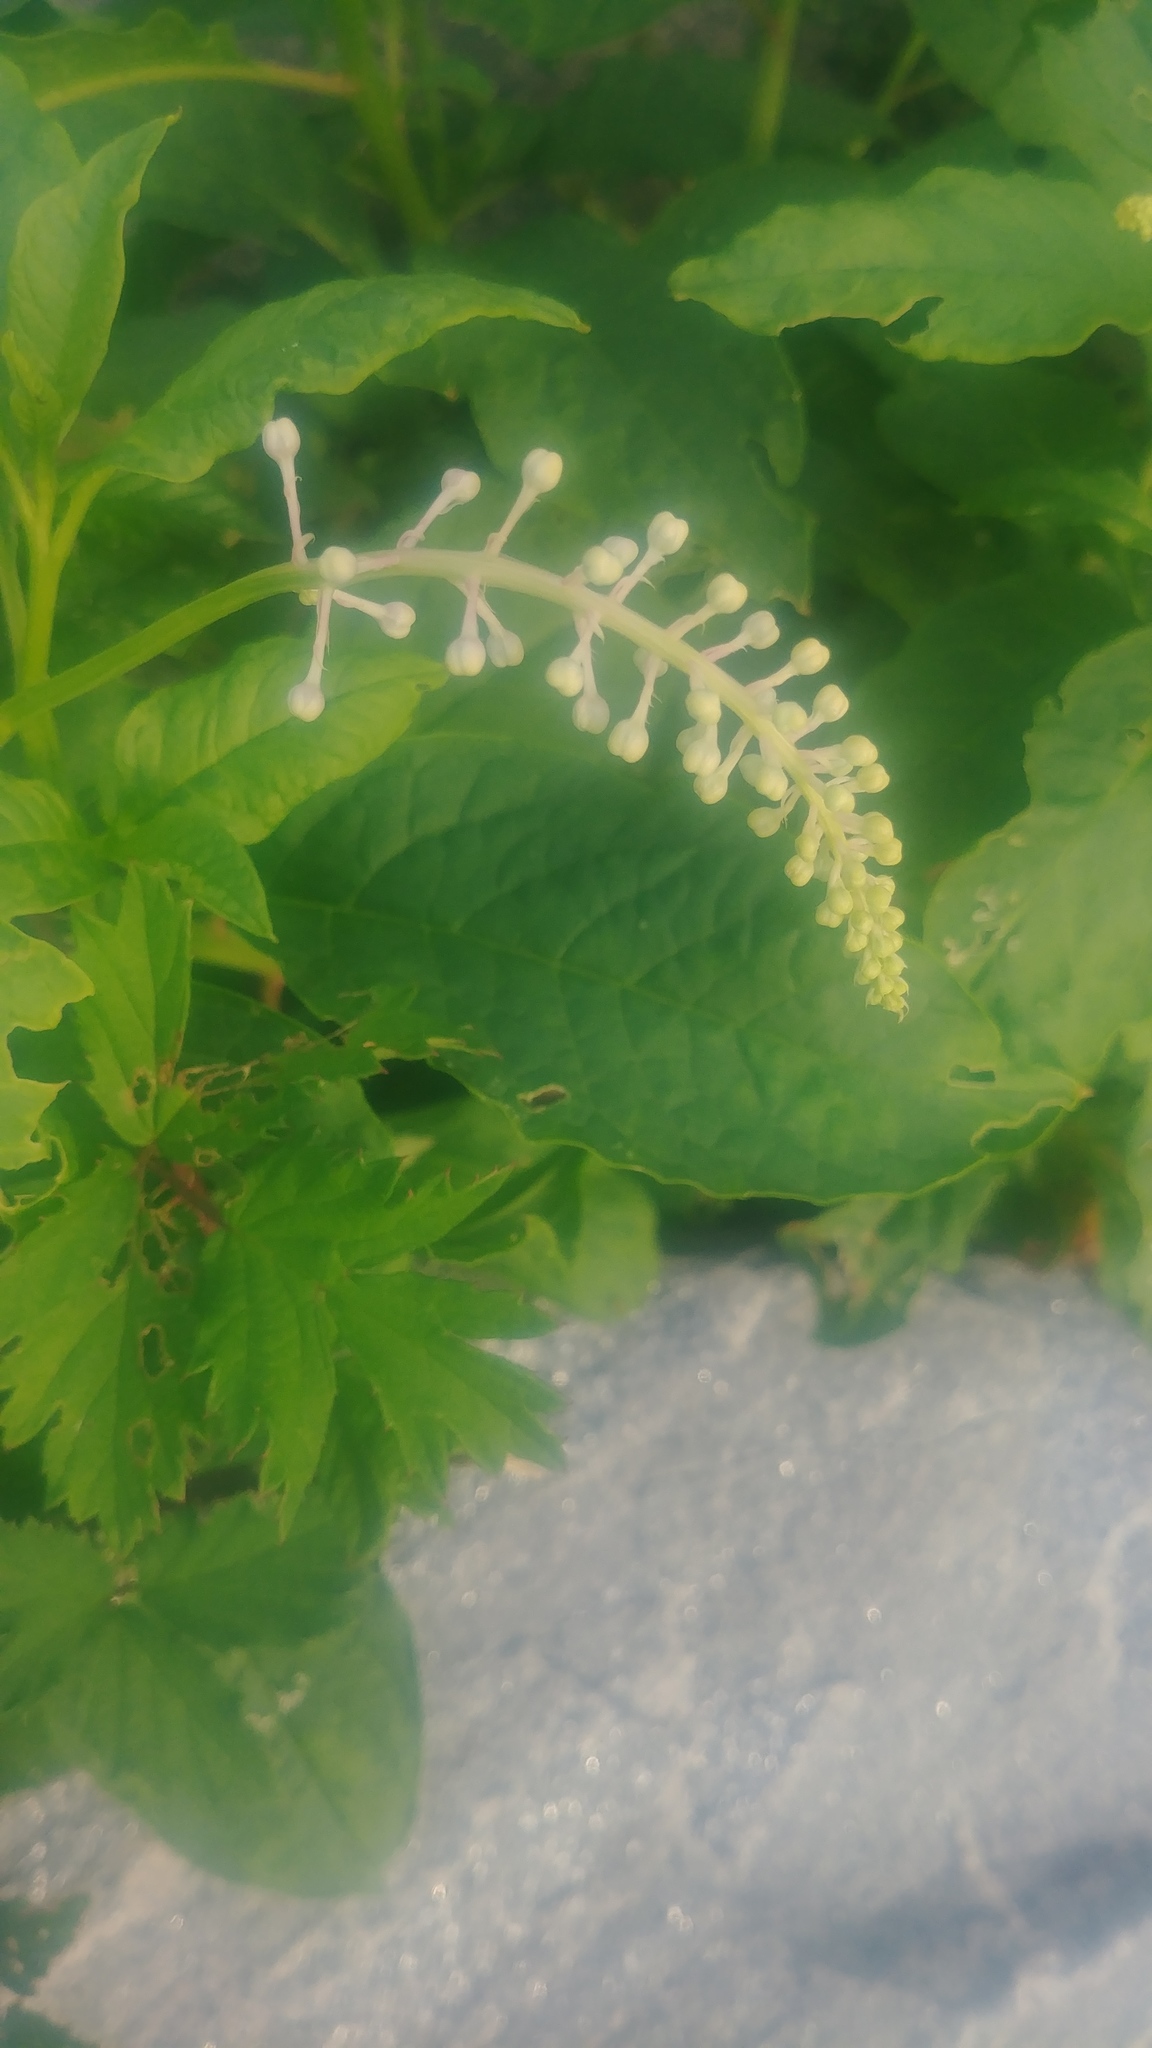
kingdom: Plantae
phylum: Tracheophyta
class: Magnoliopsida
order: Caryophyllales
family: Phytolaccaceae
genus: Phytolacca
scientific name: Phytolacca americana
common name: American pokeweed
